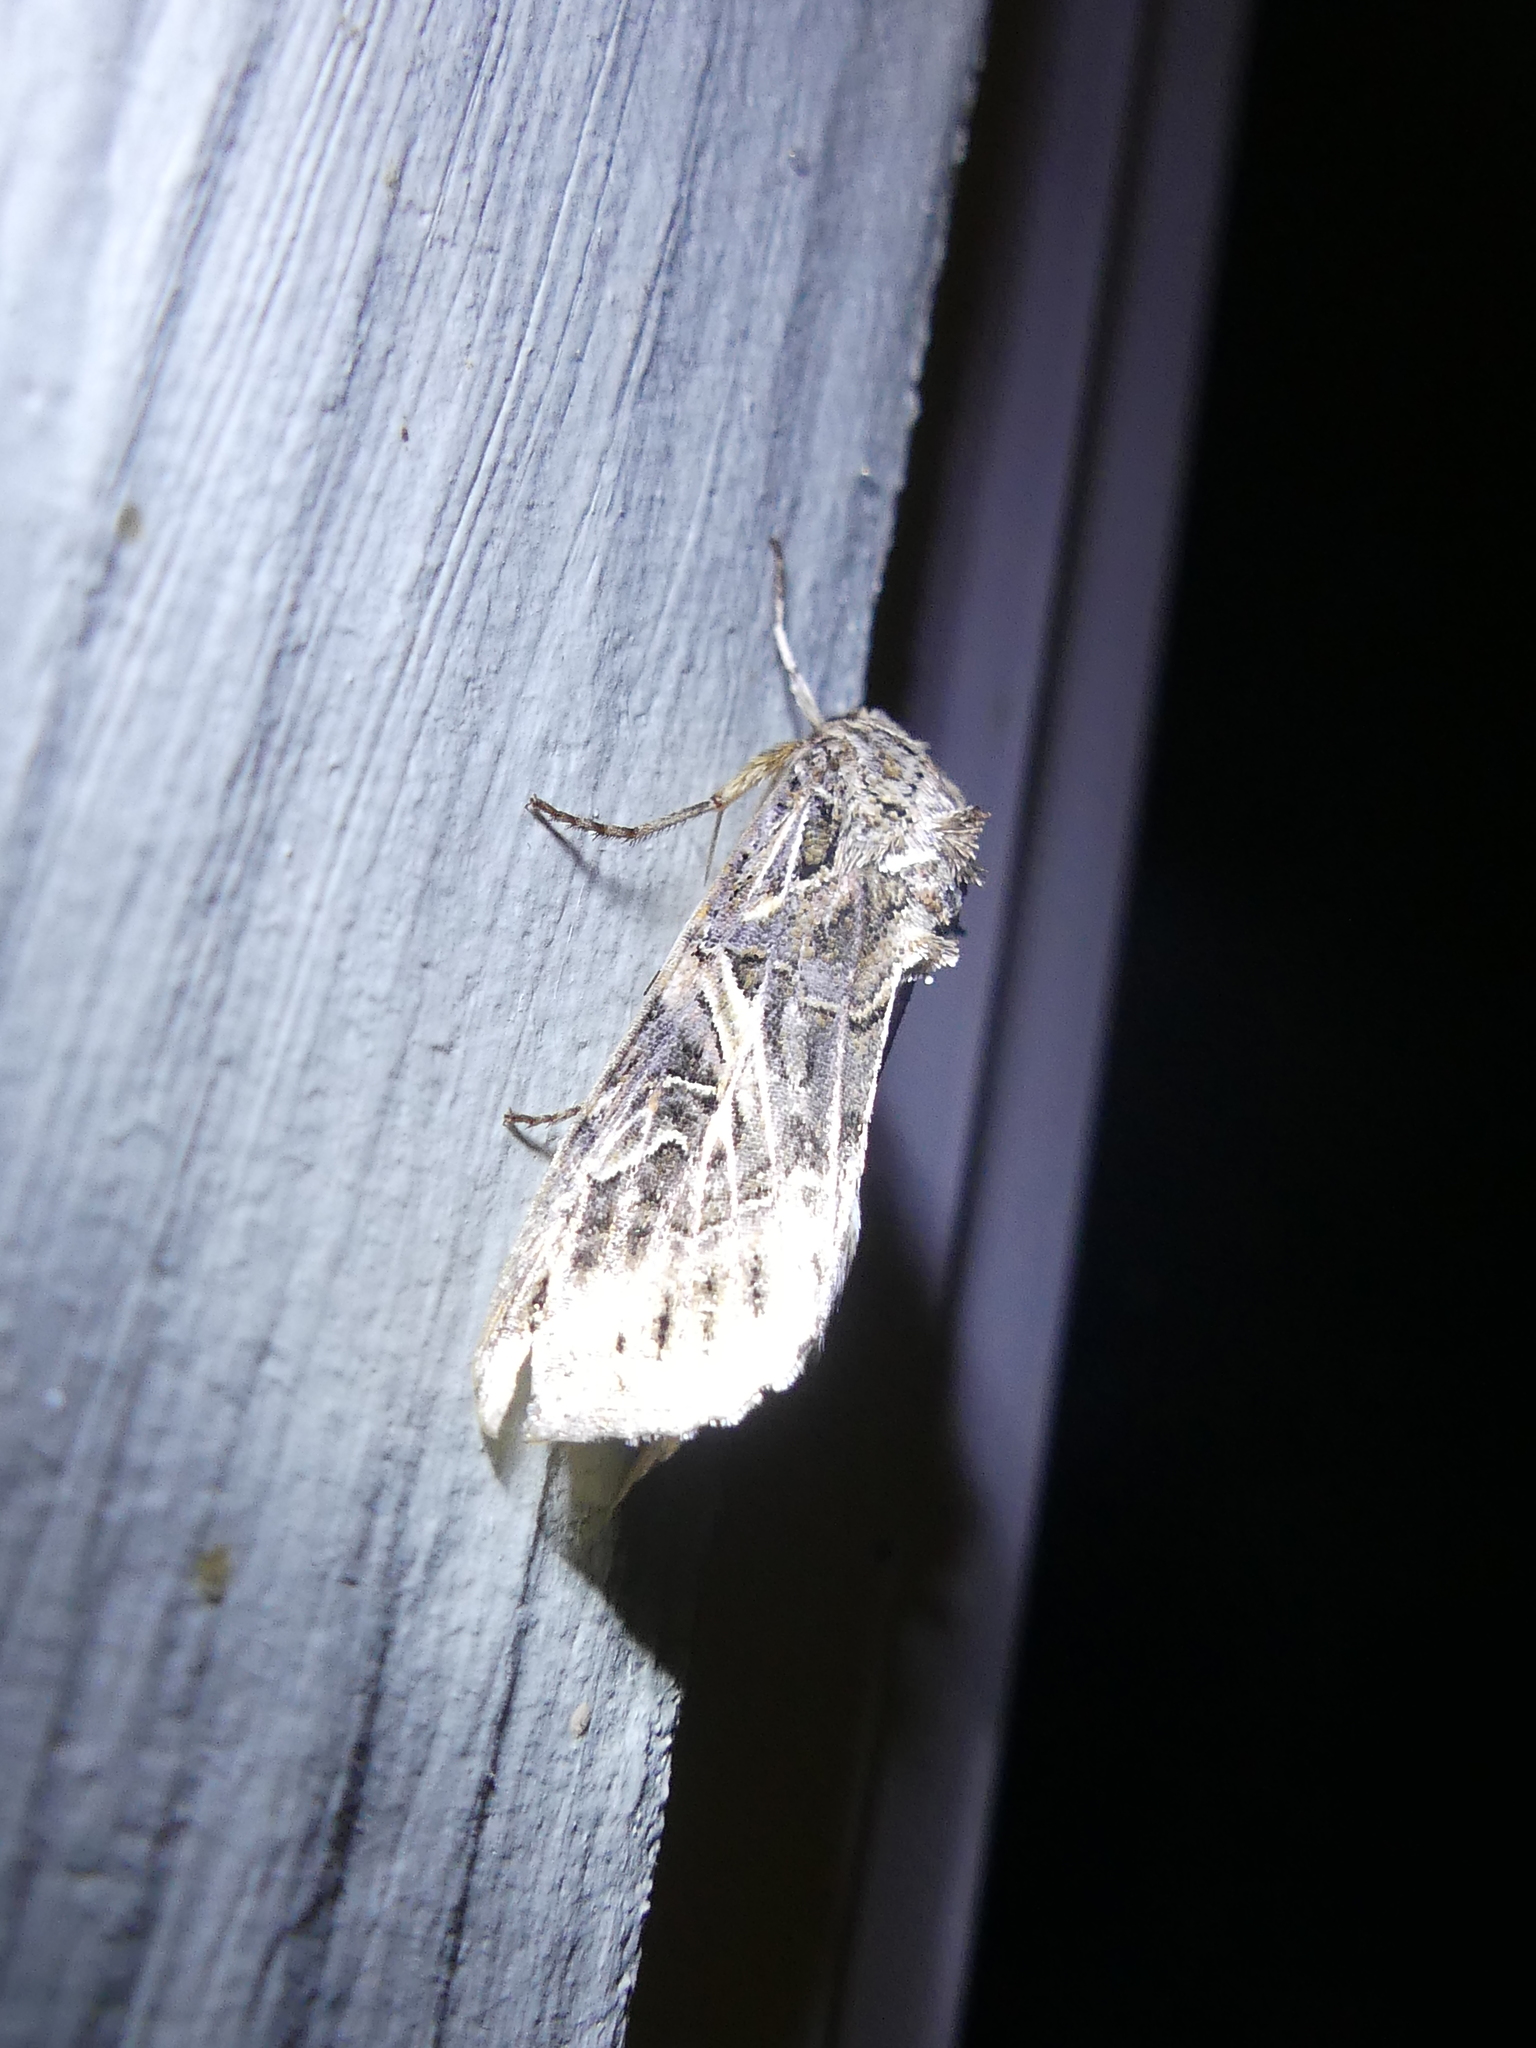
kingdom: Animalia
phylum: Arthropoda
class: Insecta
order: Lepidoptera
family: Noctuidae
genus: Spodoptera
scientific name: Spodoptera ornithogalli
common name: Yellow-striped armyworm
